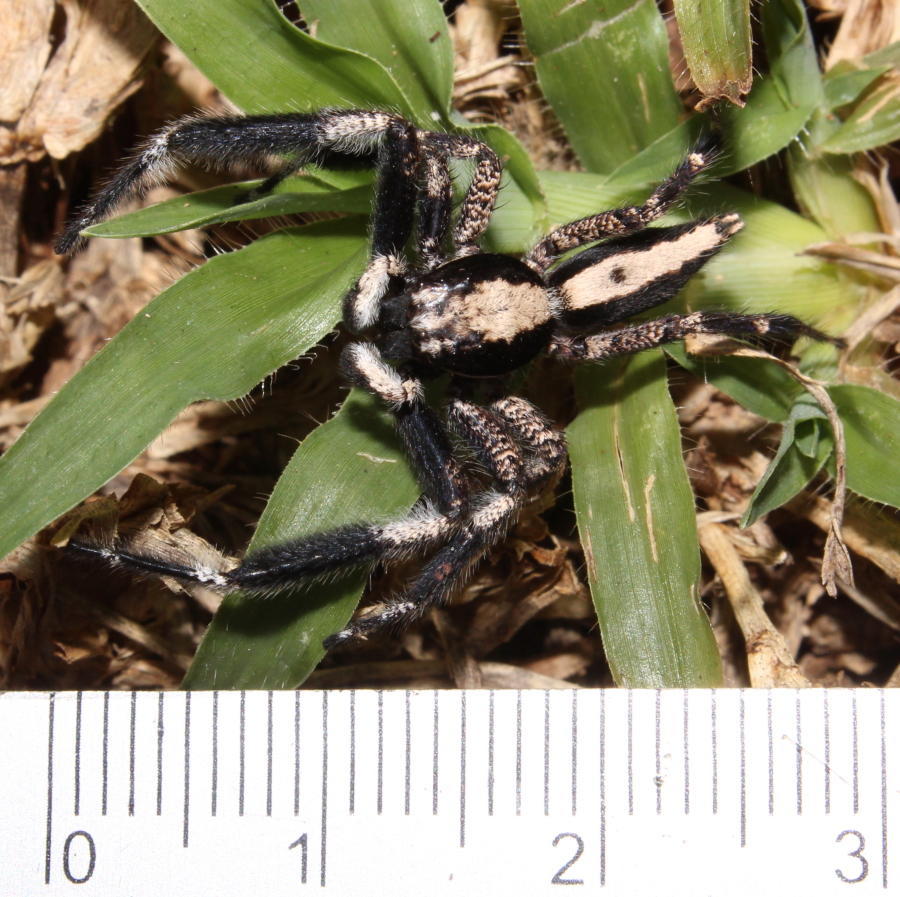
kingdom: Animalia
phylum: Arthropoda
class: Arachnida
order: Araneae
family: Salticidae
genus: Holcolaetis
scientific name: Holcolaetis zuluensis
